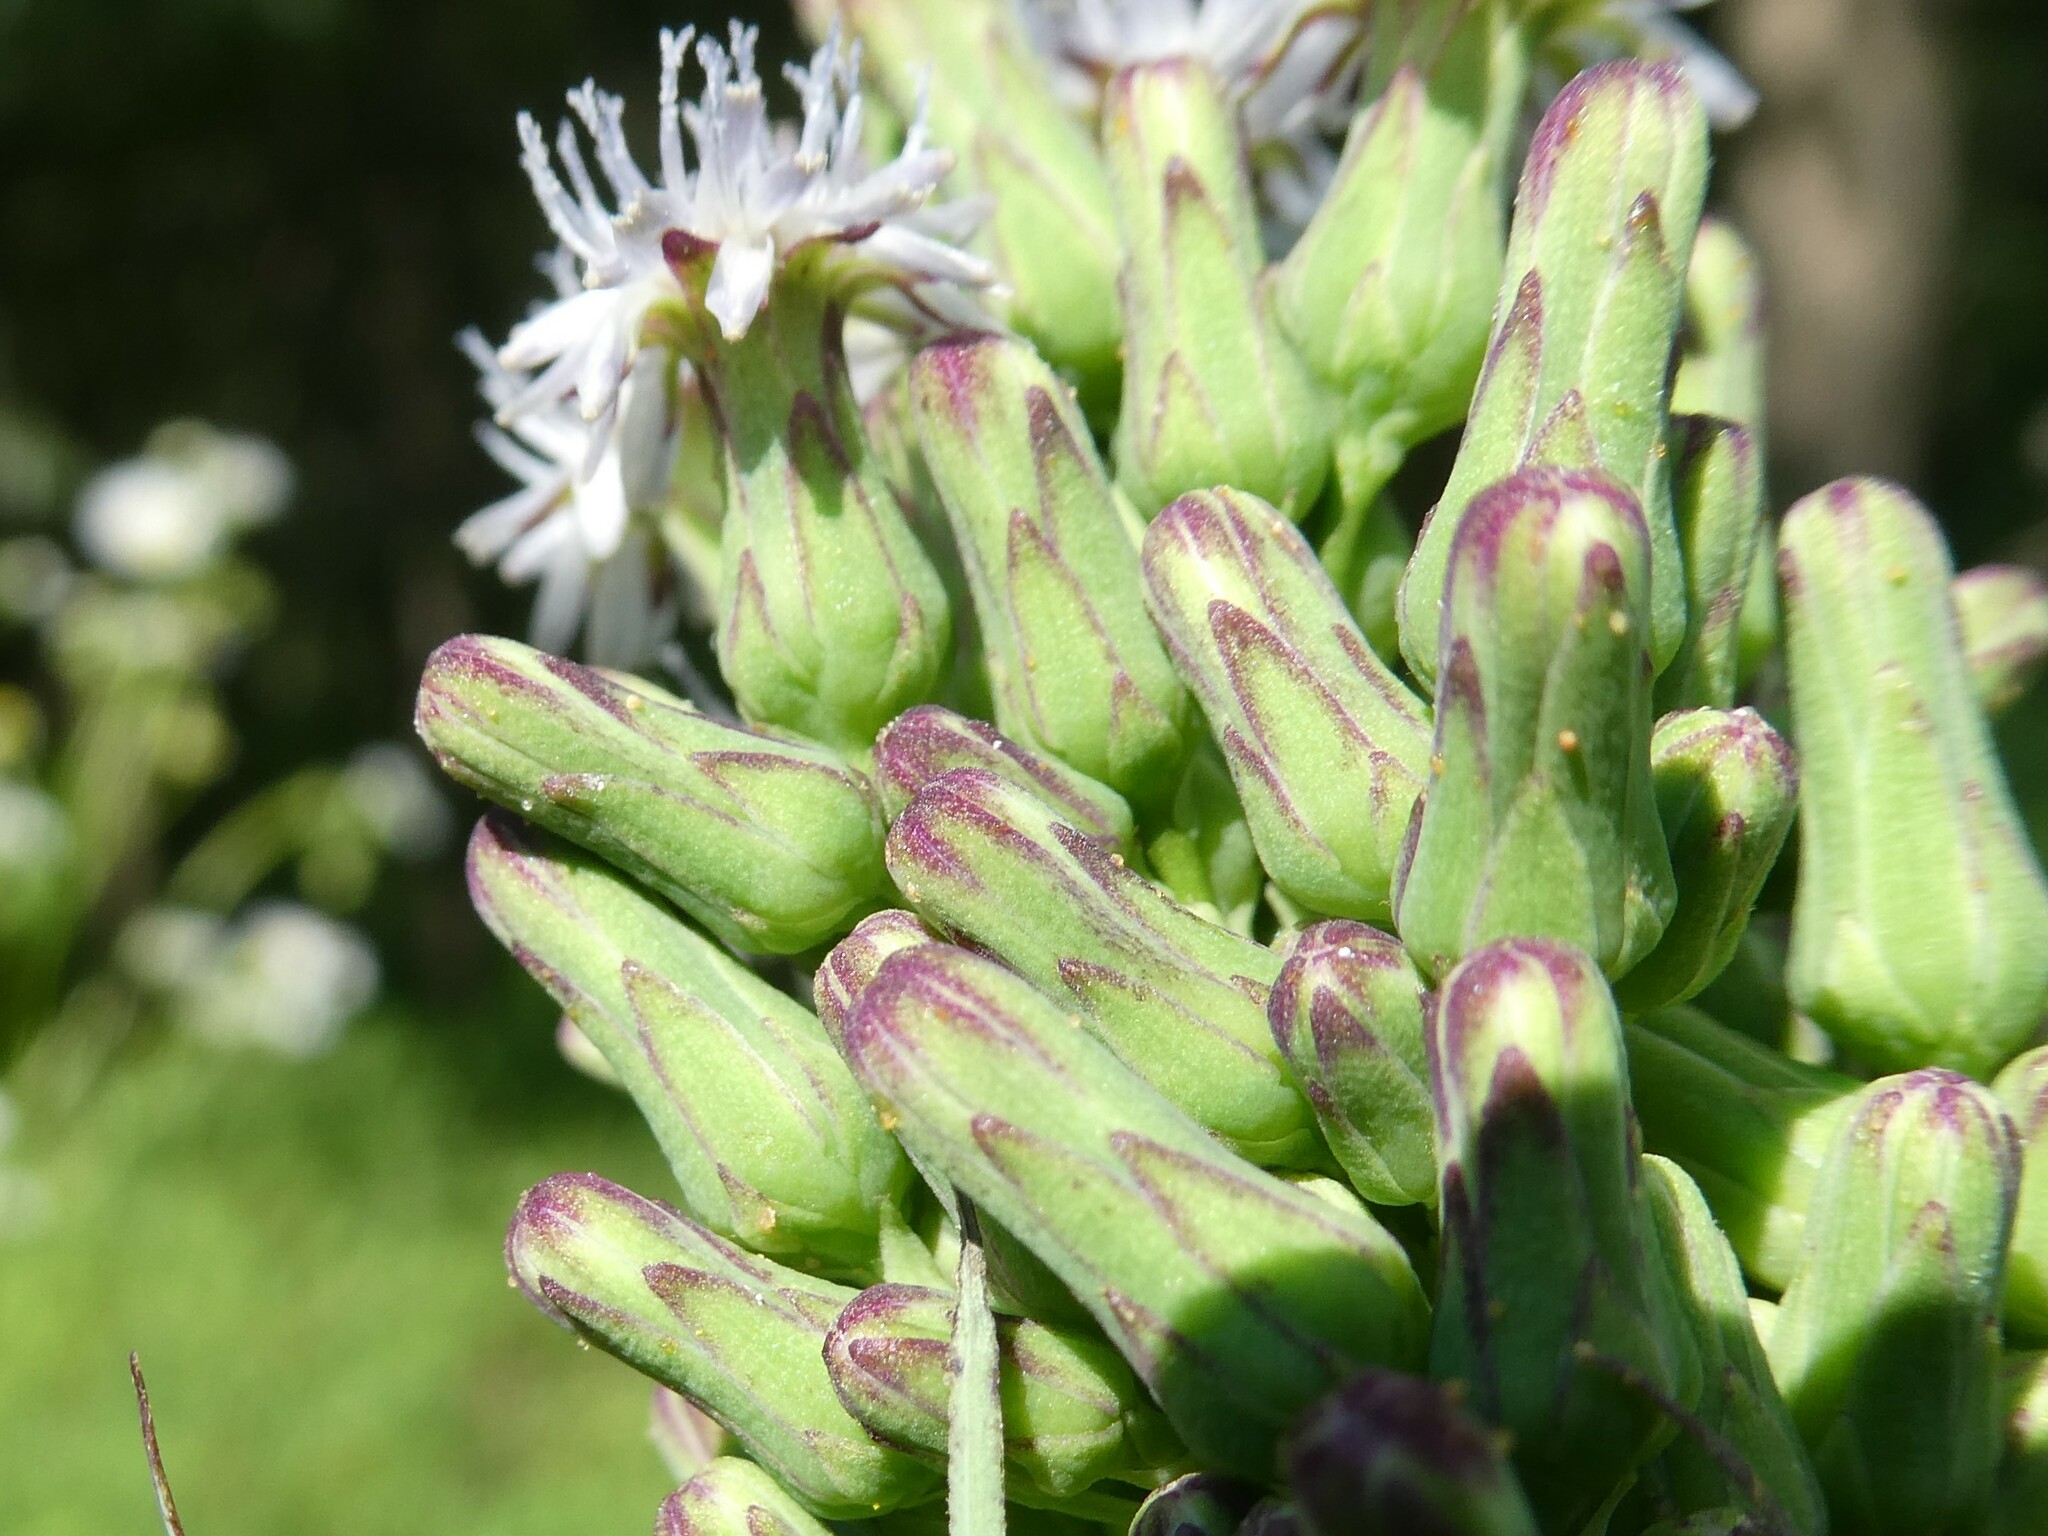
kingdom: Plantae
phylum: Tracheophyta
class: Magnoliopsida
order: Asterales
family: Asteraceae
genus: Lactuca
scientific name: Lactuca biennis
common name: Blue wood lettuce
